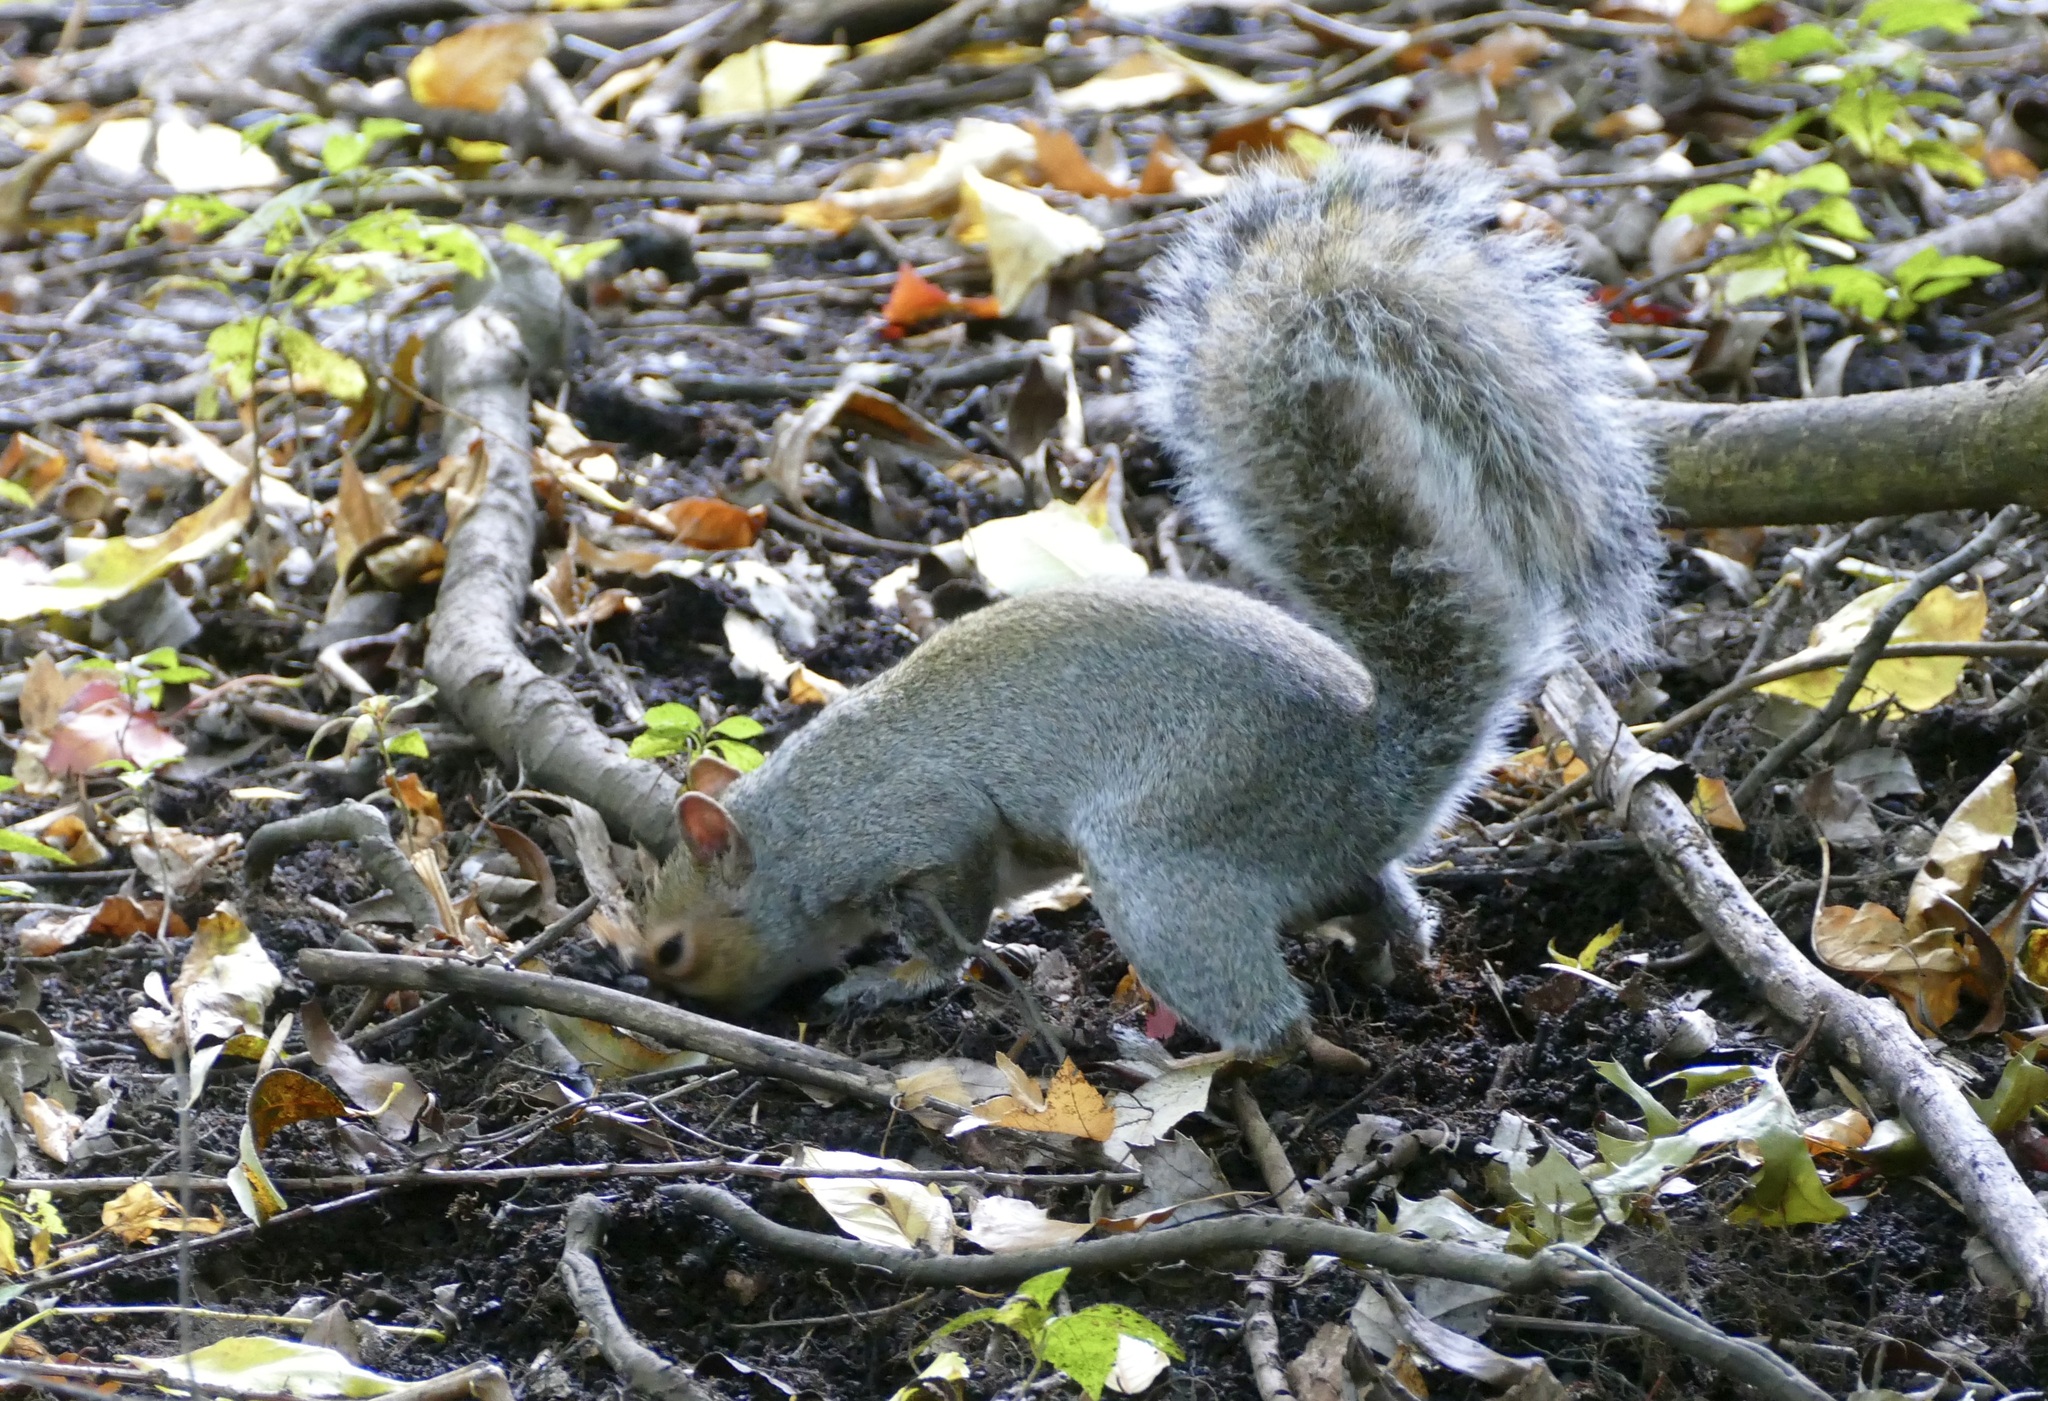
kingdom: Animalia
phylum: Chordata
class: Mammalia
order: Rodentia
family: Sciuridae
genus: Sciurus
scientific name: Sciurus carolinensis
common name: Eastern gray squirrel
